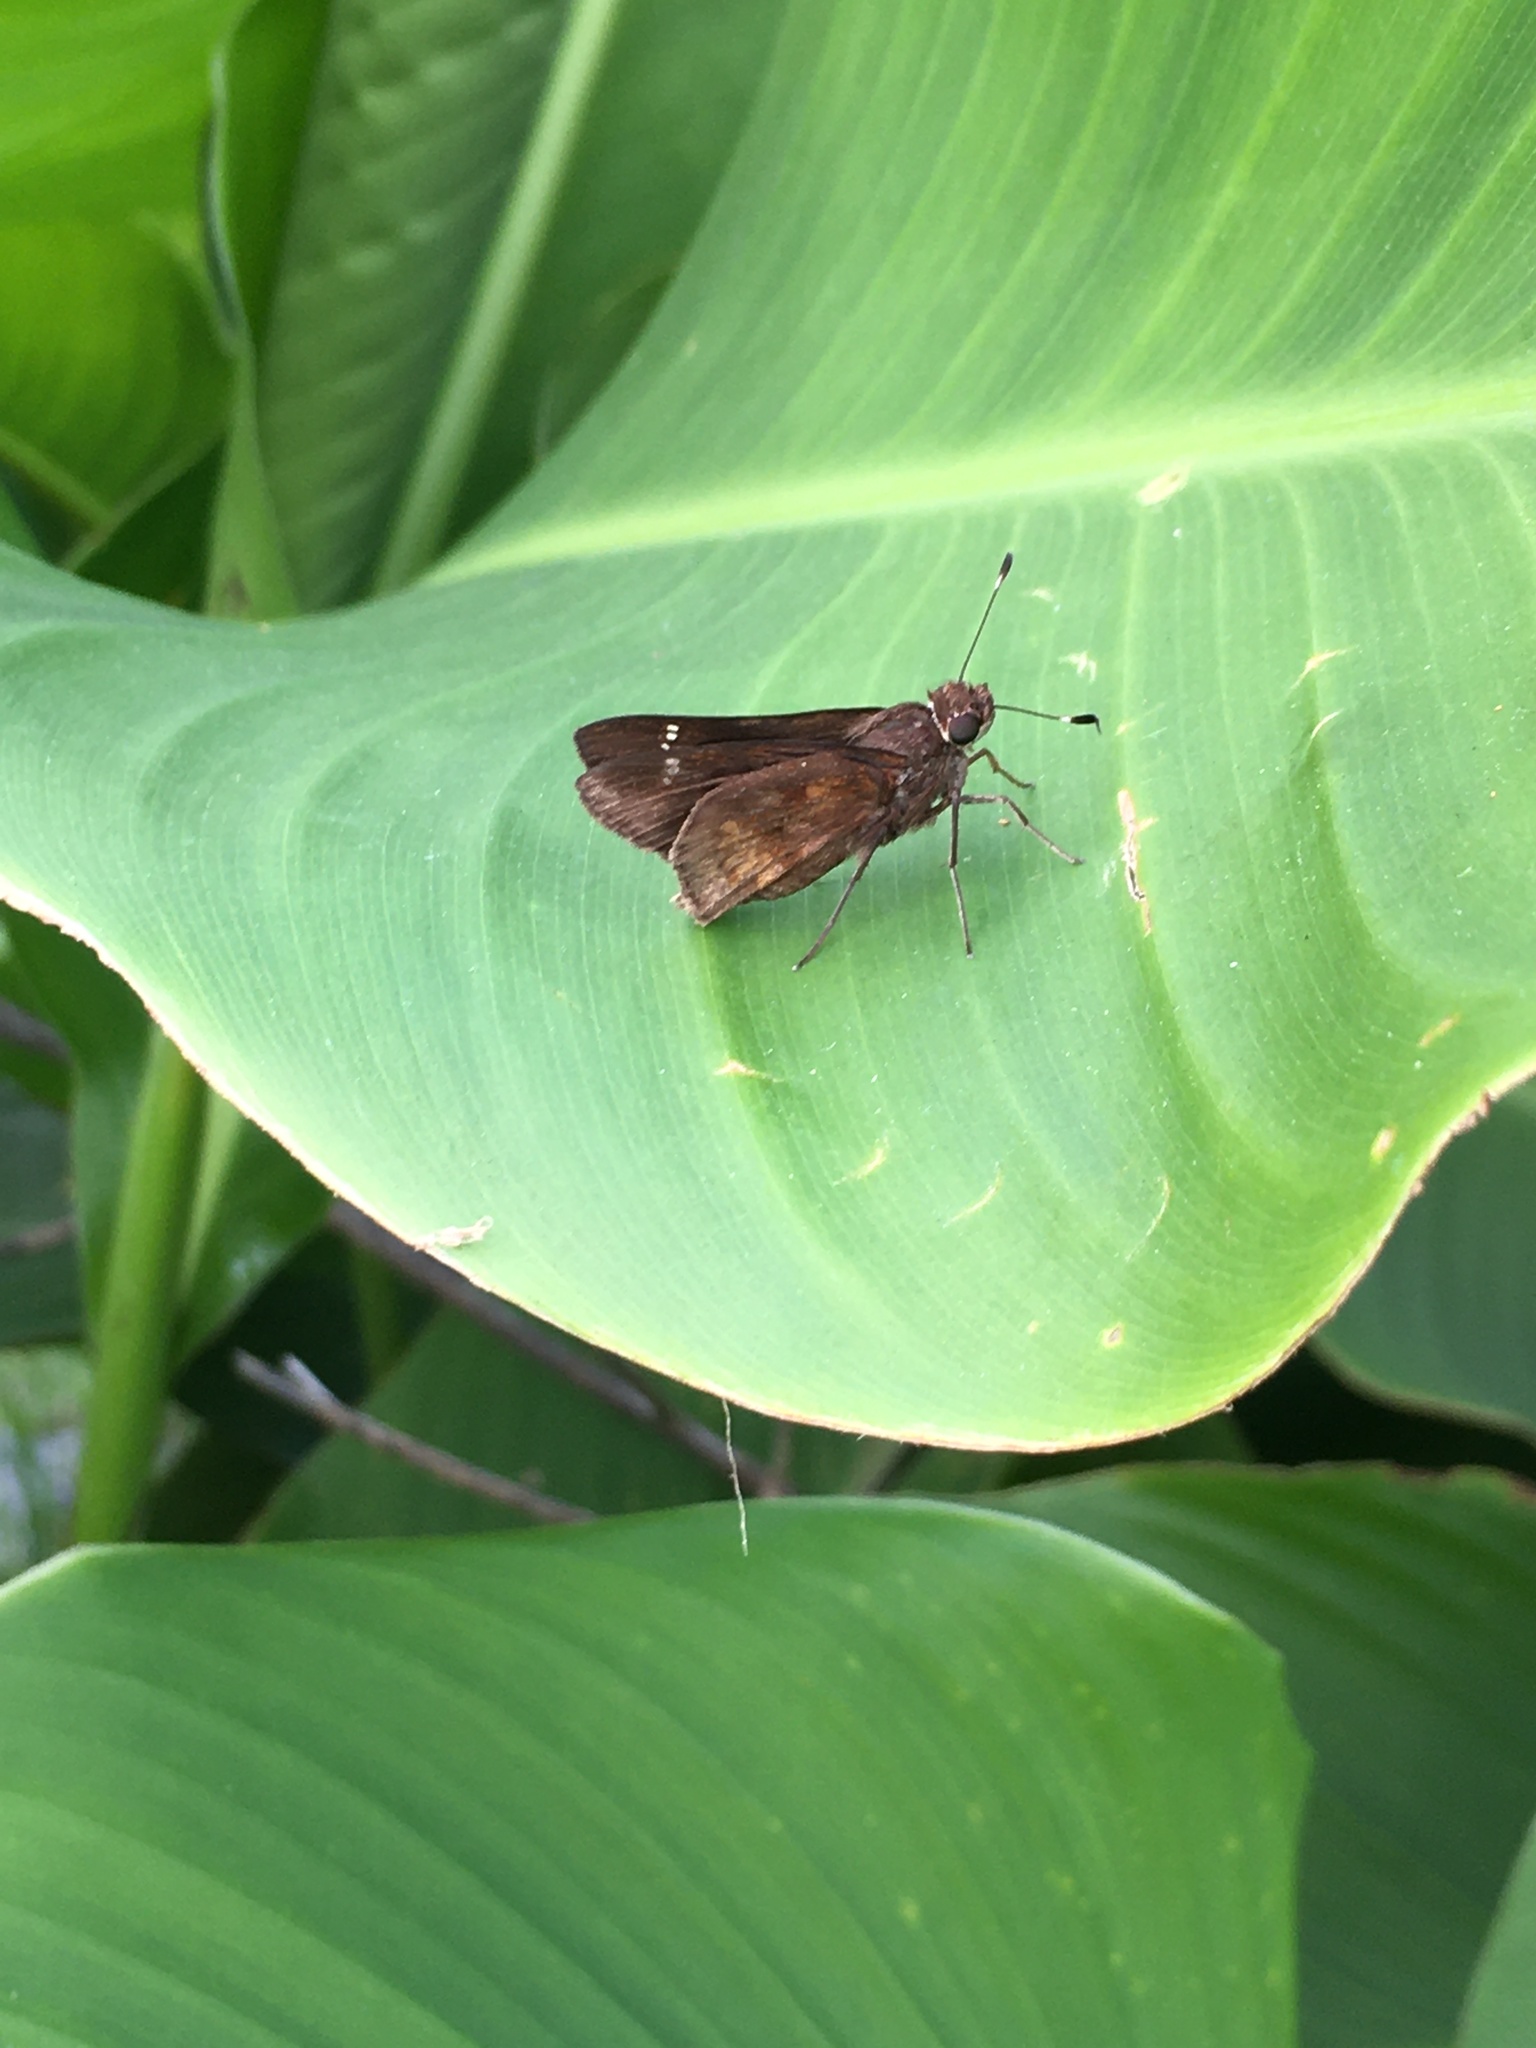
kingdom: Animalia
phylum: Arthropoda
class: Insecta
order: Lepidoptera
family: Hesperiidae
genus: Quinta
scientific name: Quinta cannae
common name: Canna skipper
